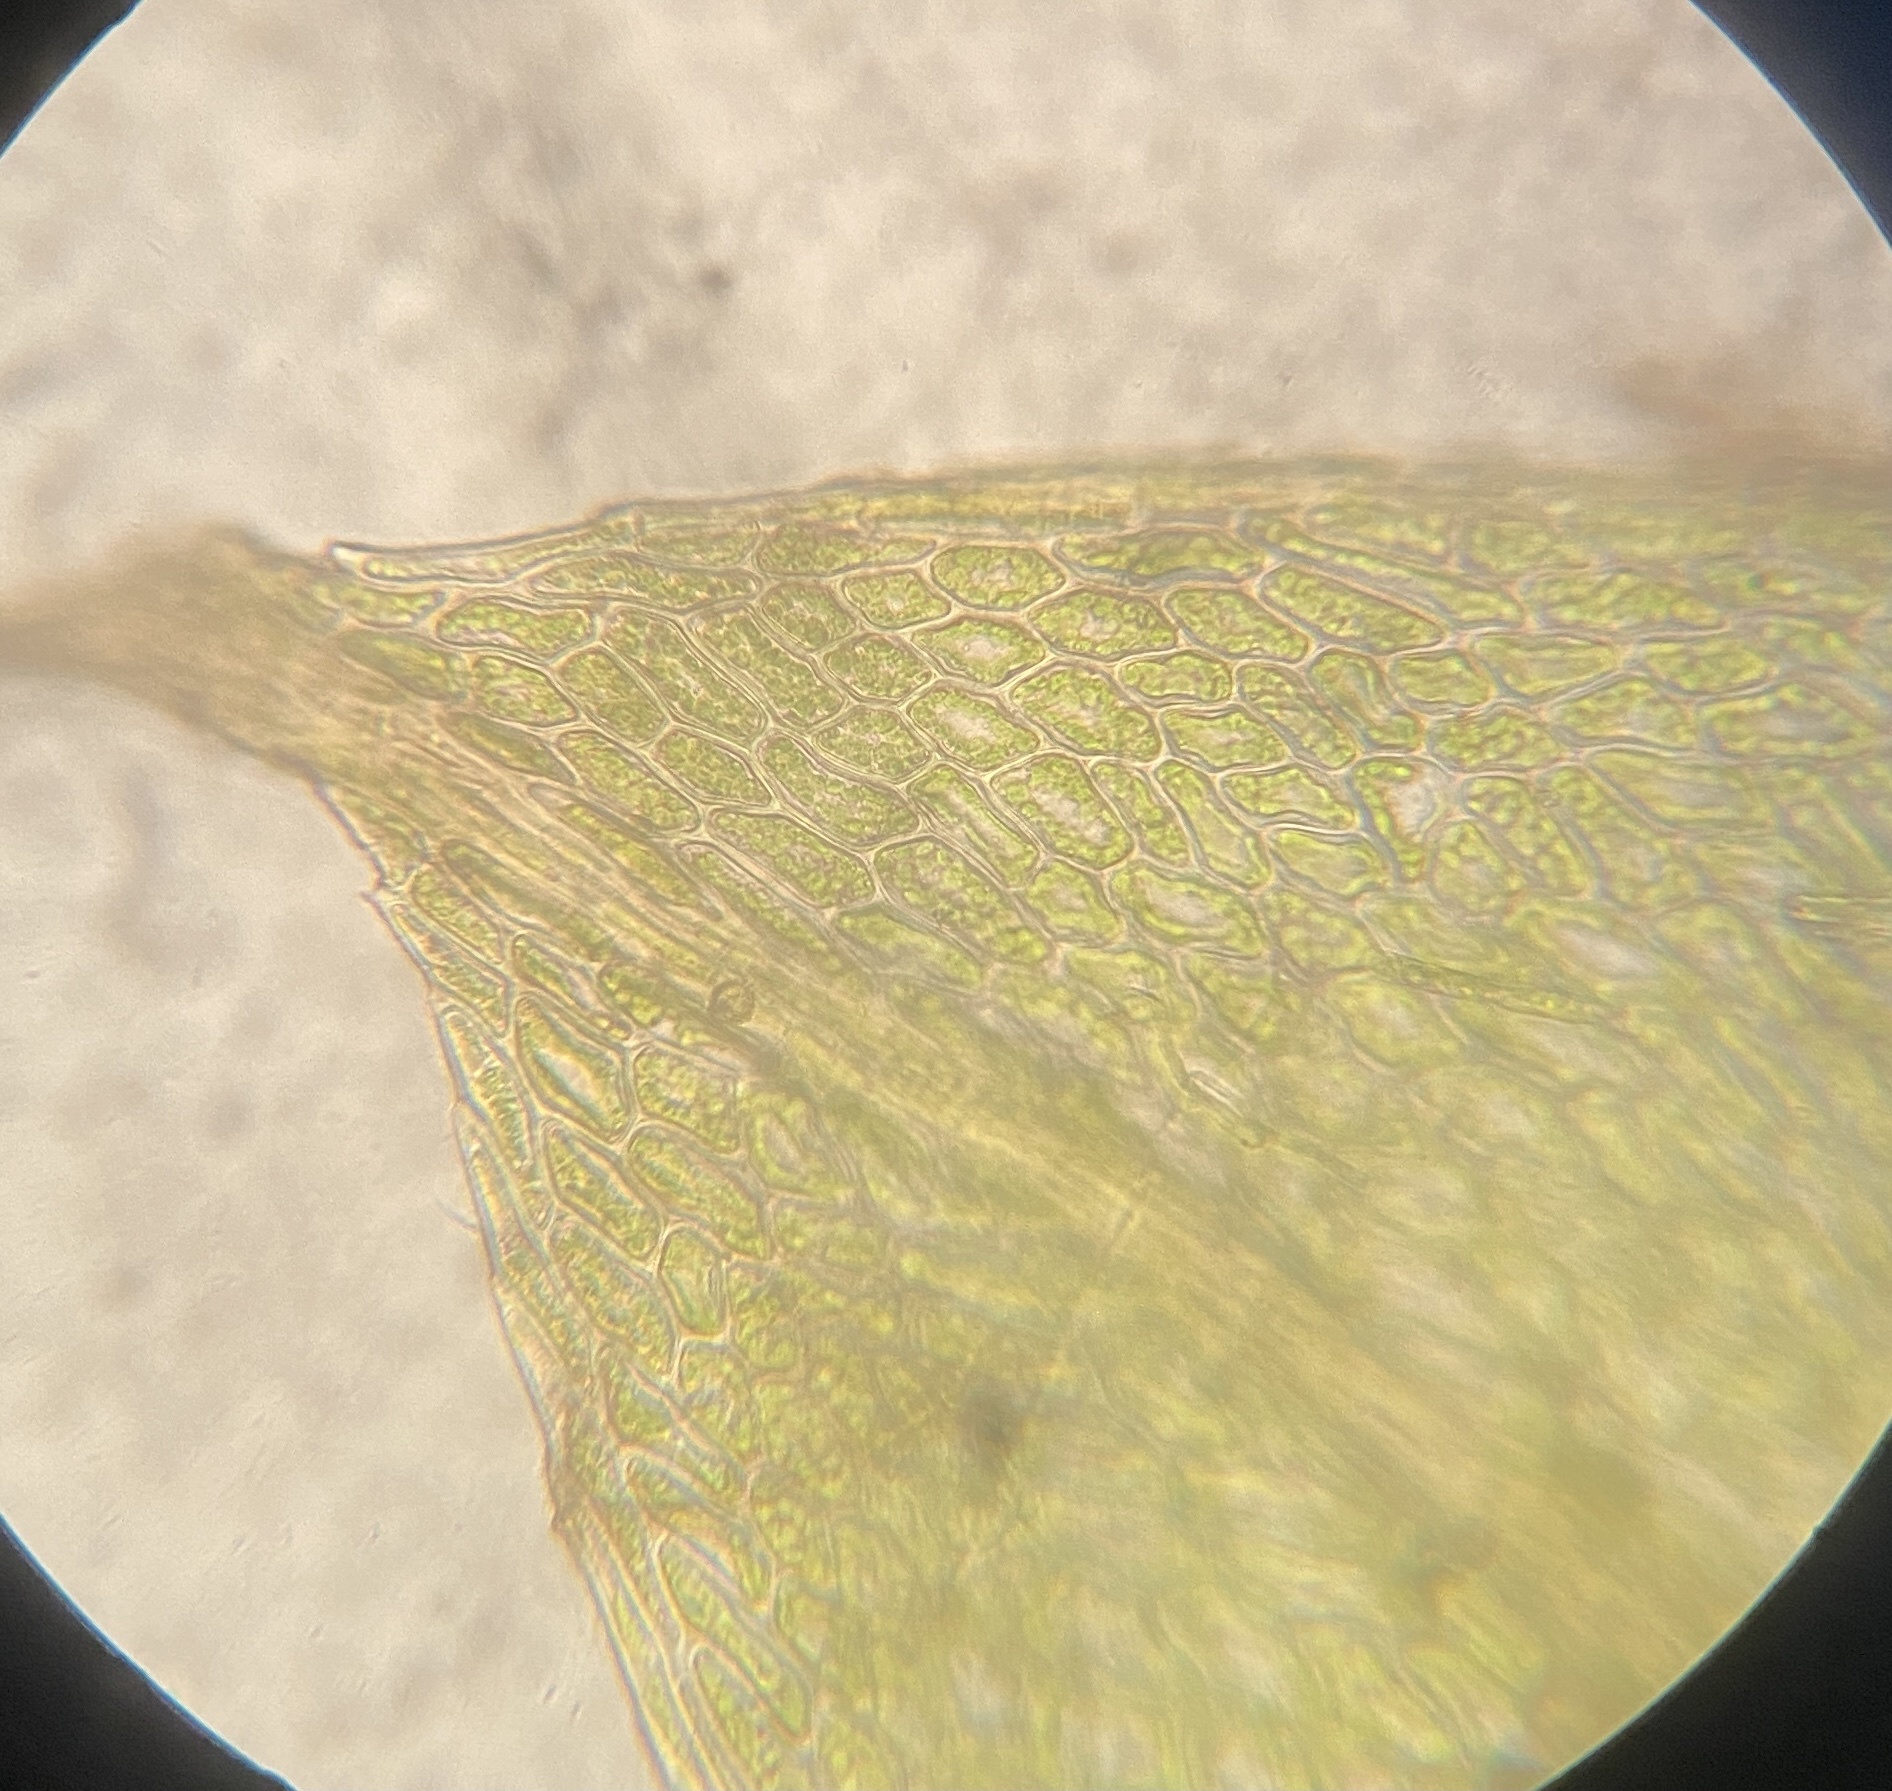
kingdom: Plantae
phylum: Bryophyta
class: Bryopsida
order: Bryales
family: Bryaceae
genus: Ptychostomum
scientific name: Ptychostomum pseudotriquetrum
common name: Long-leaved thread moss
